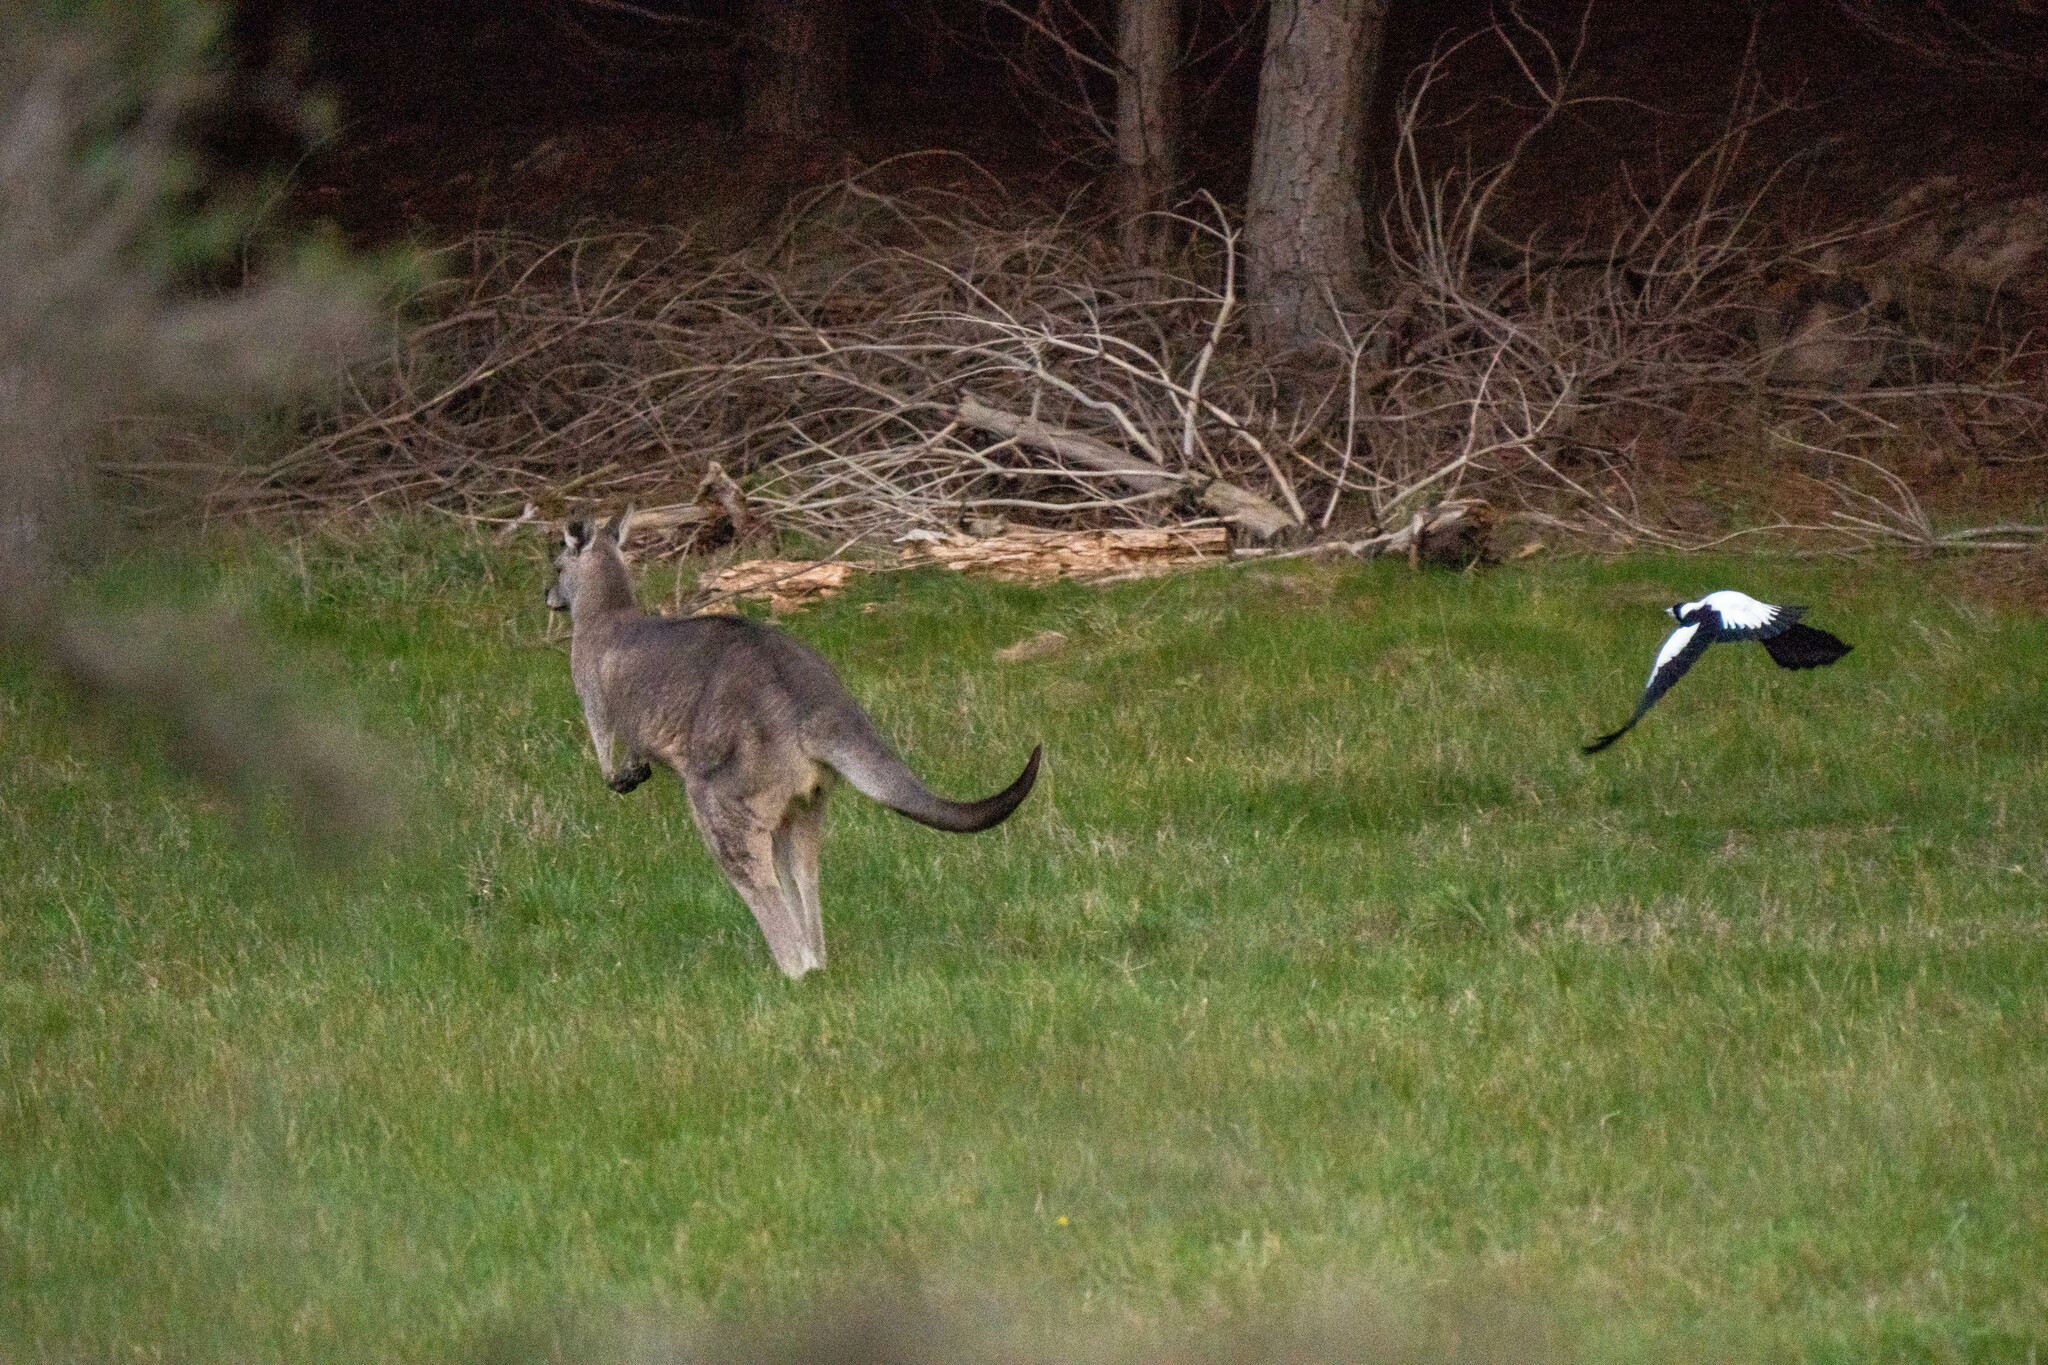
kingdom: Animalia
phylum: Chordata
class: Mammalia
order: Diprotodontia
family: Macropodidae
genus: Macropus
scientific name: Macropus giganteus
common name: Eastern grey kangaroo
